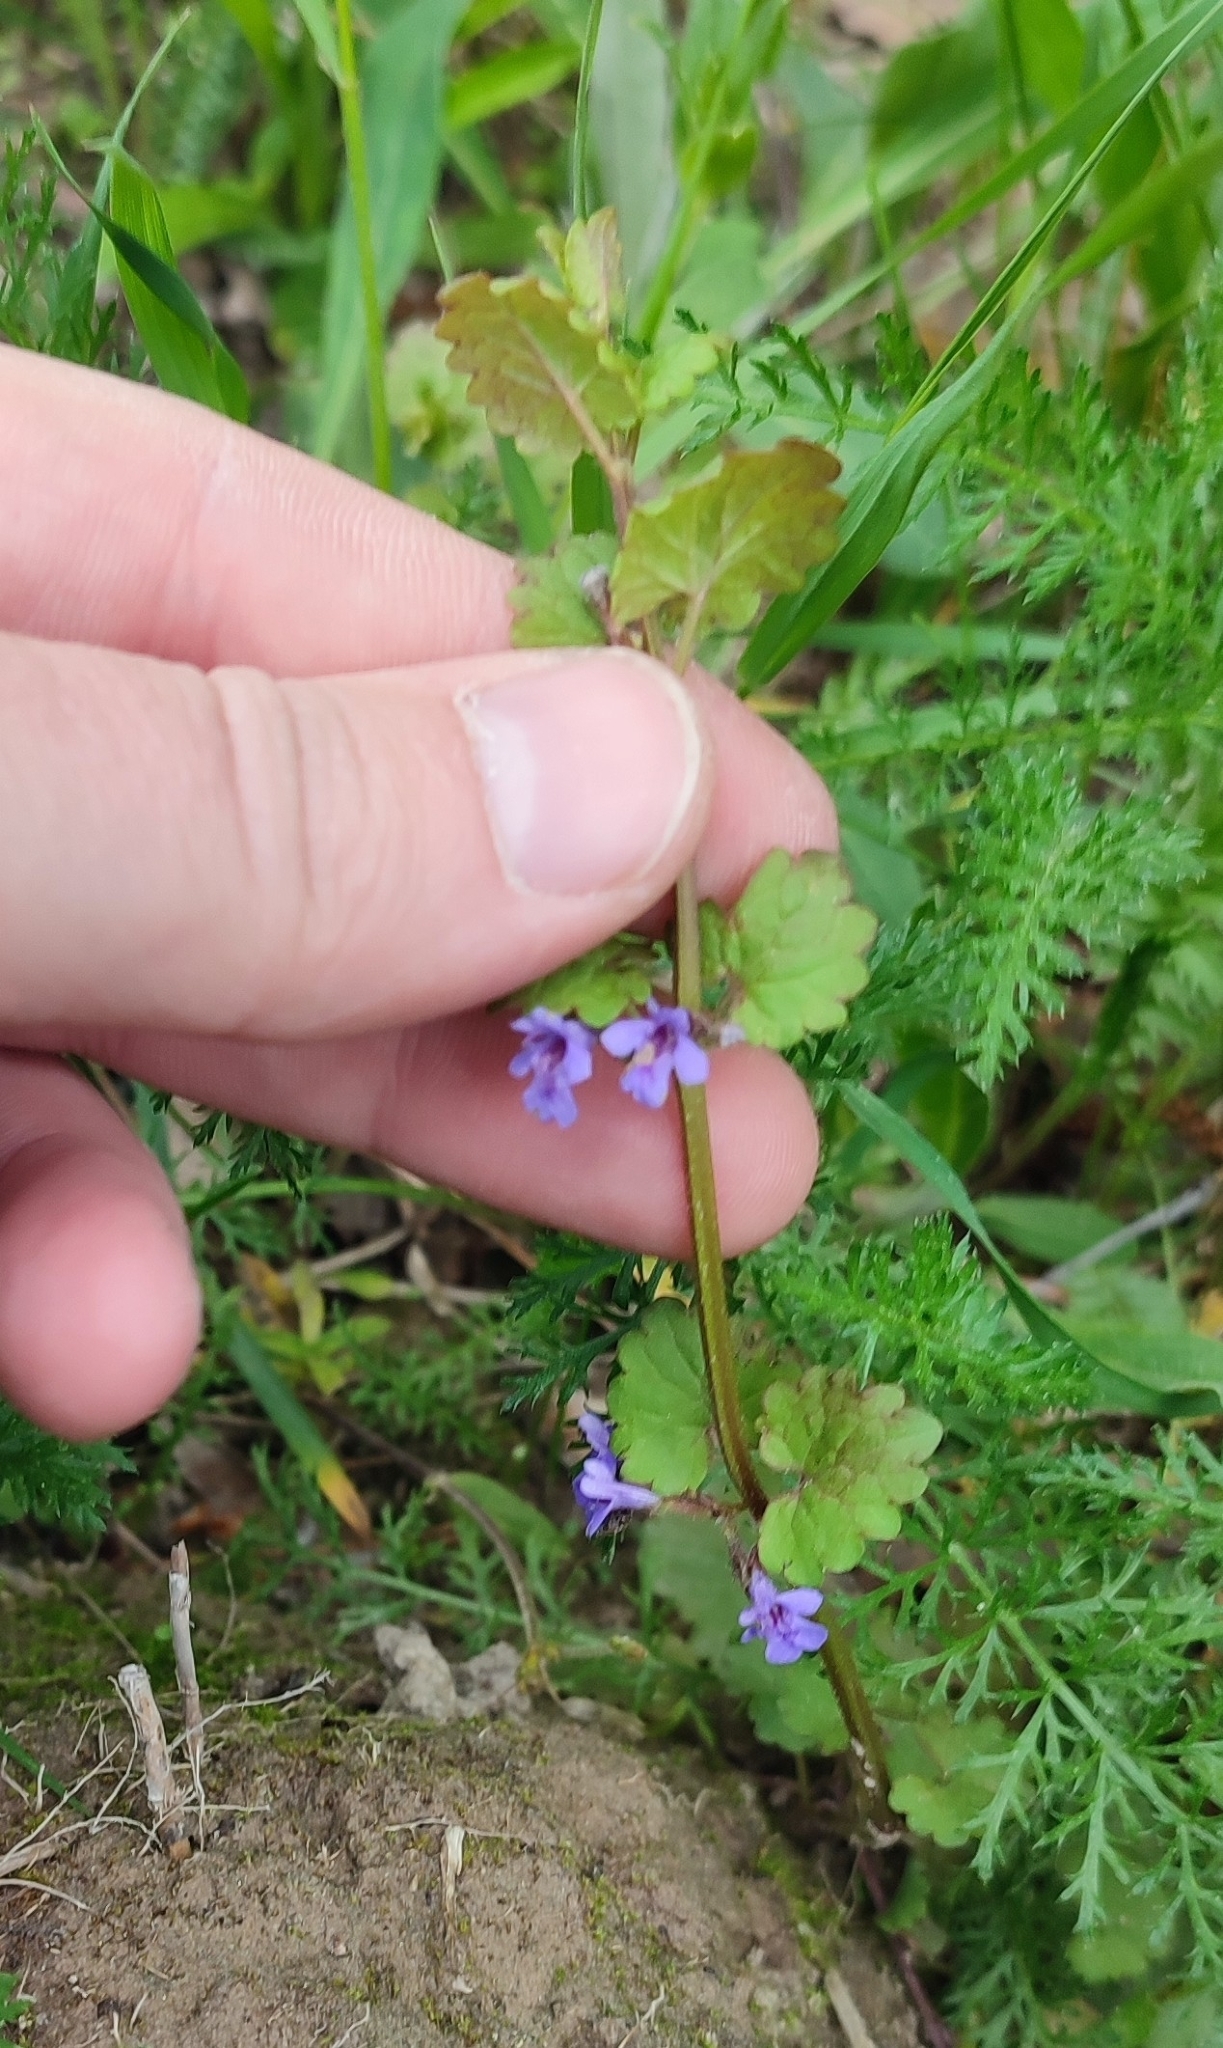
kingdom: Plantae
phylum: Tracheophyta
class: Magnoliopsida
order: Lamiales
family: Lamiaceae
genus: Glechoma
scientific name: Glechoma hederacea
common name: Ground ivy
